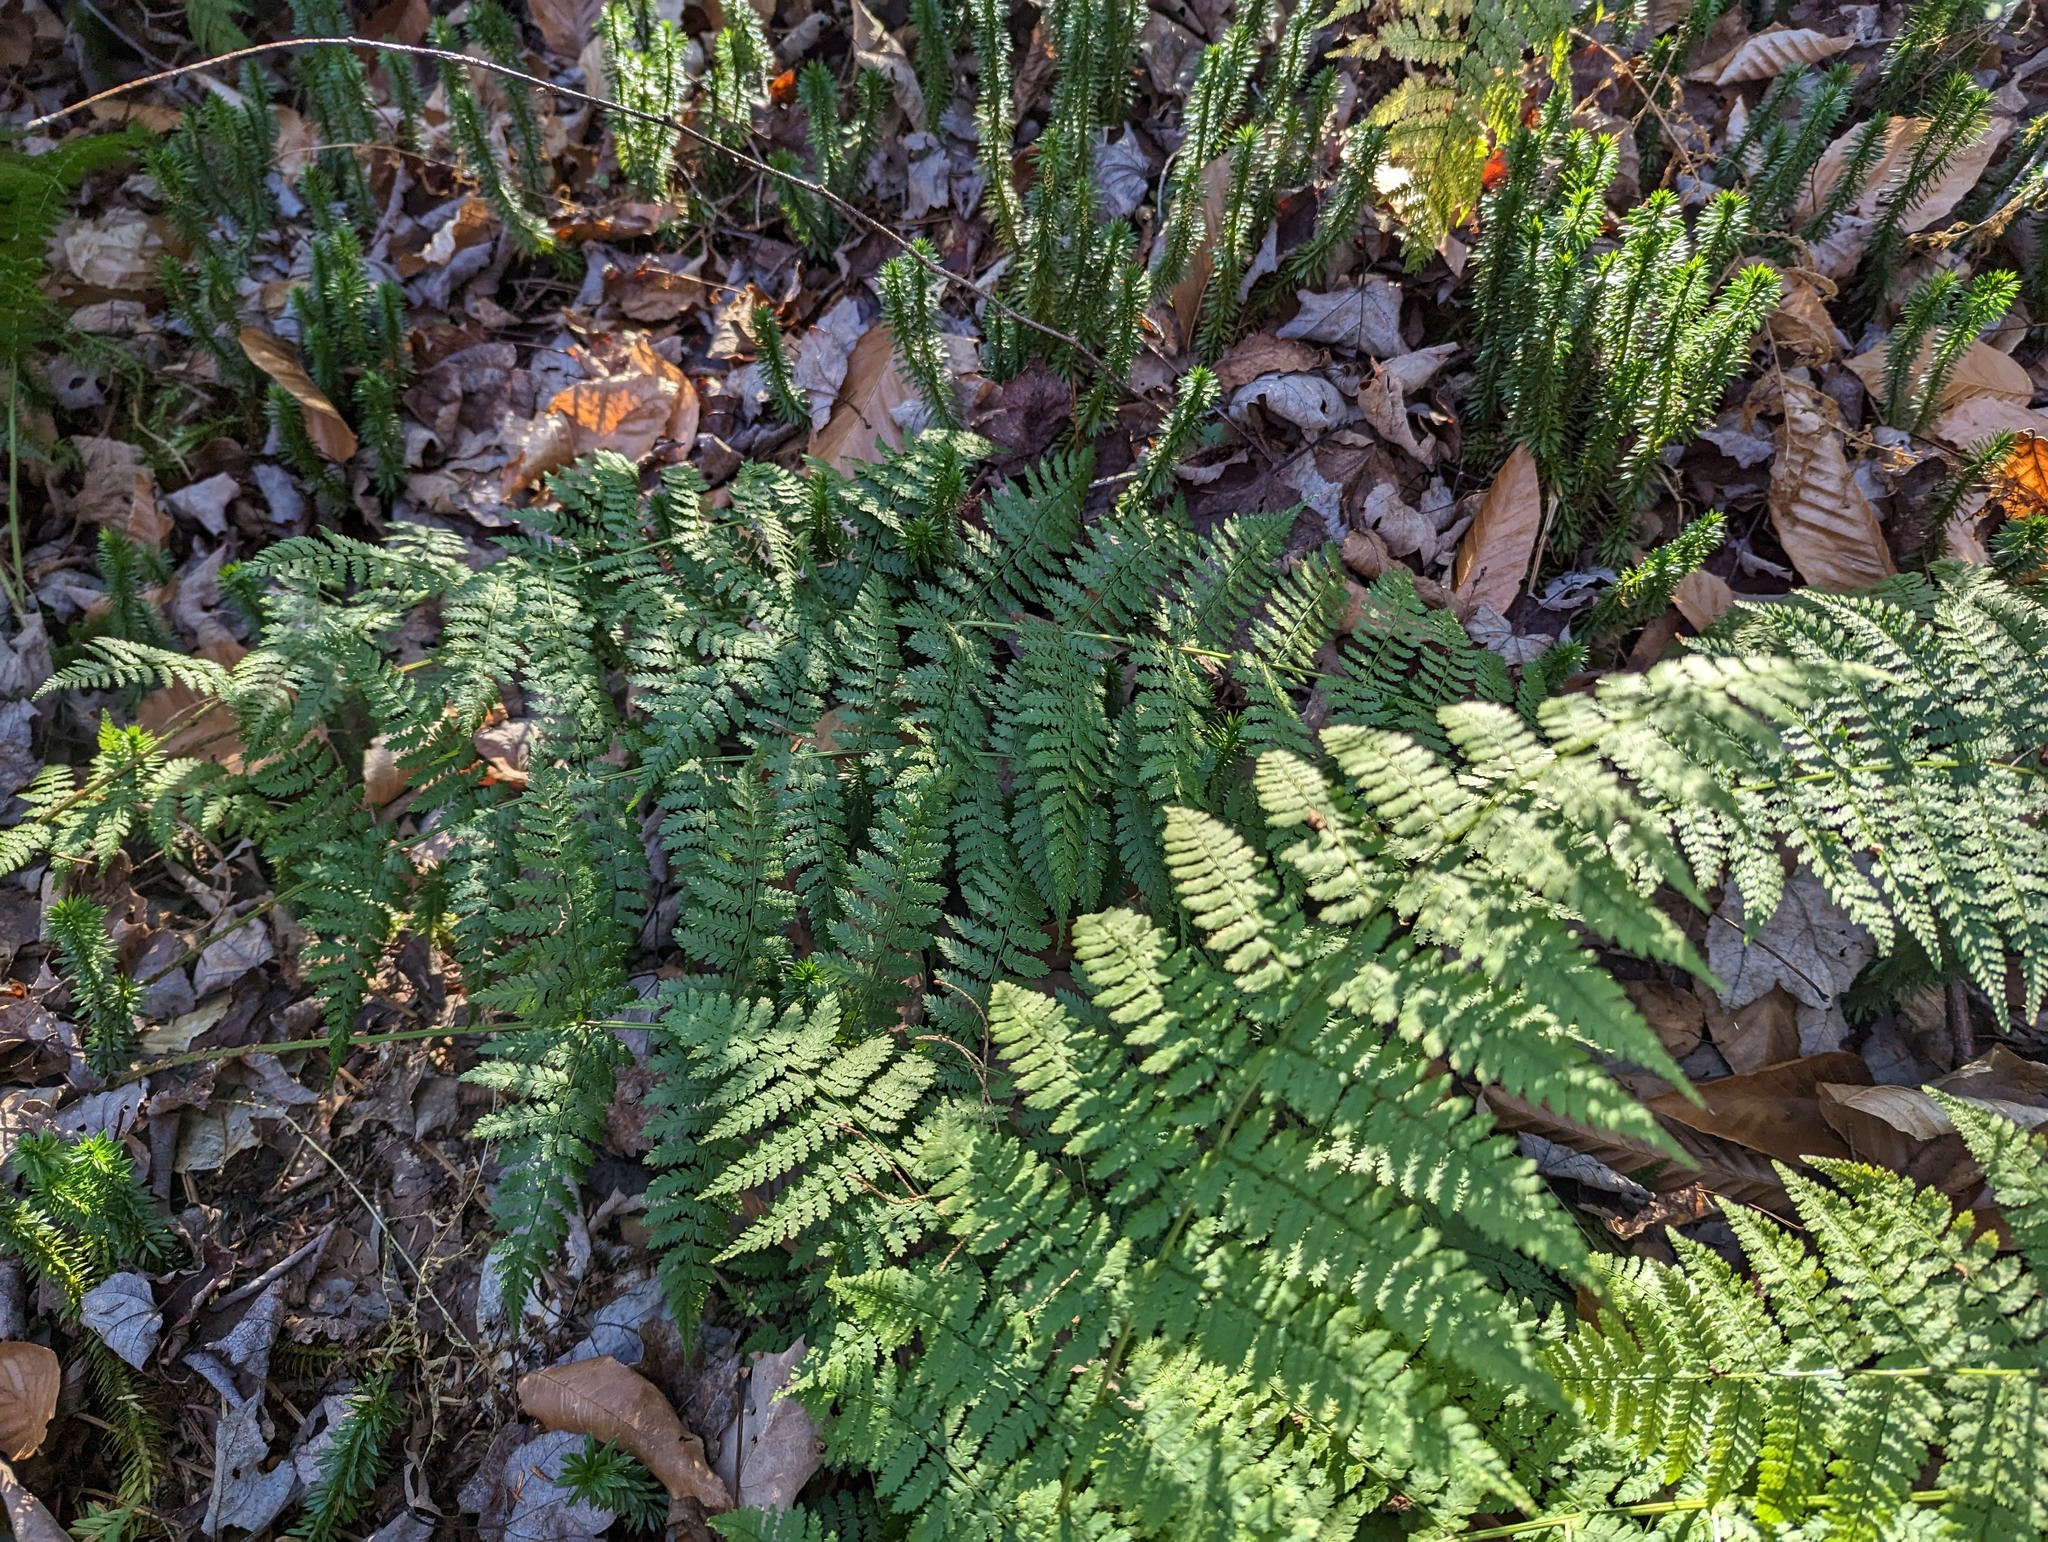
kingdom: Plantae
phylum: Tracheophyta
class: Polypodiopsida
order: Polypodiales
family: Dryopteridaceae
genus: Dryopteris
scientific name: Dryopteris intermedia
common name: Evergreen wood fern
